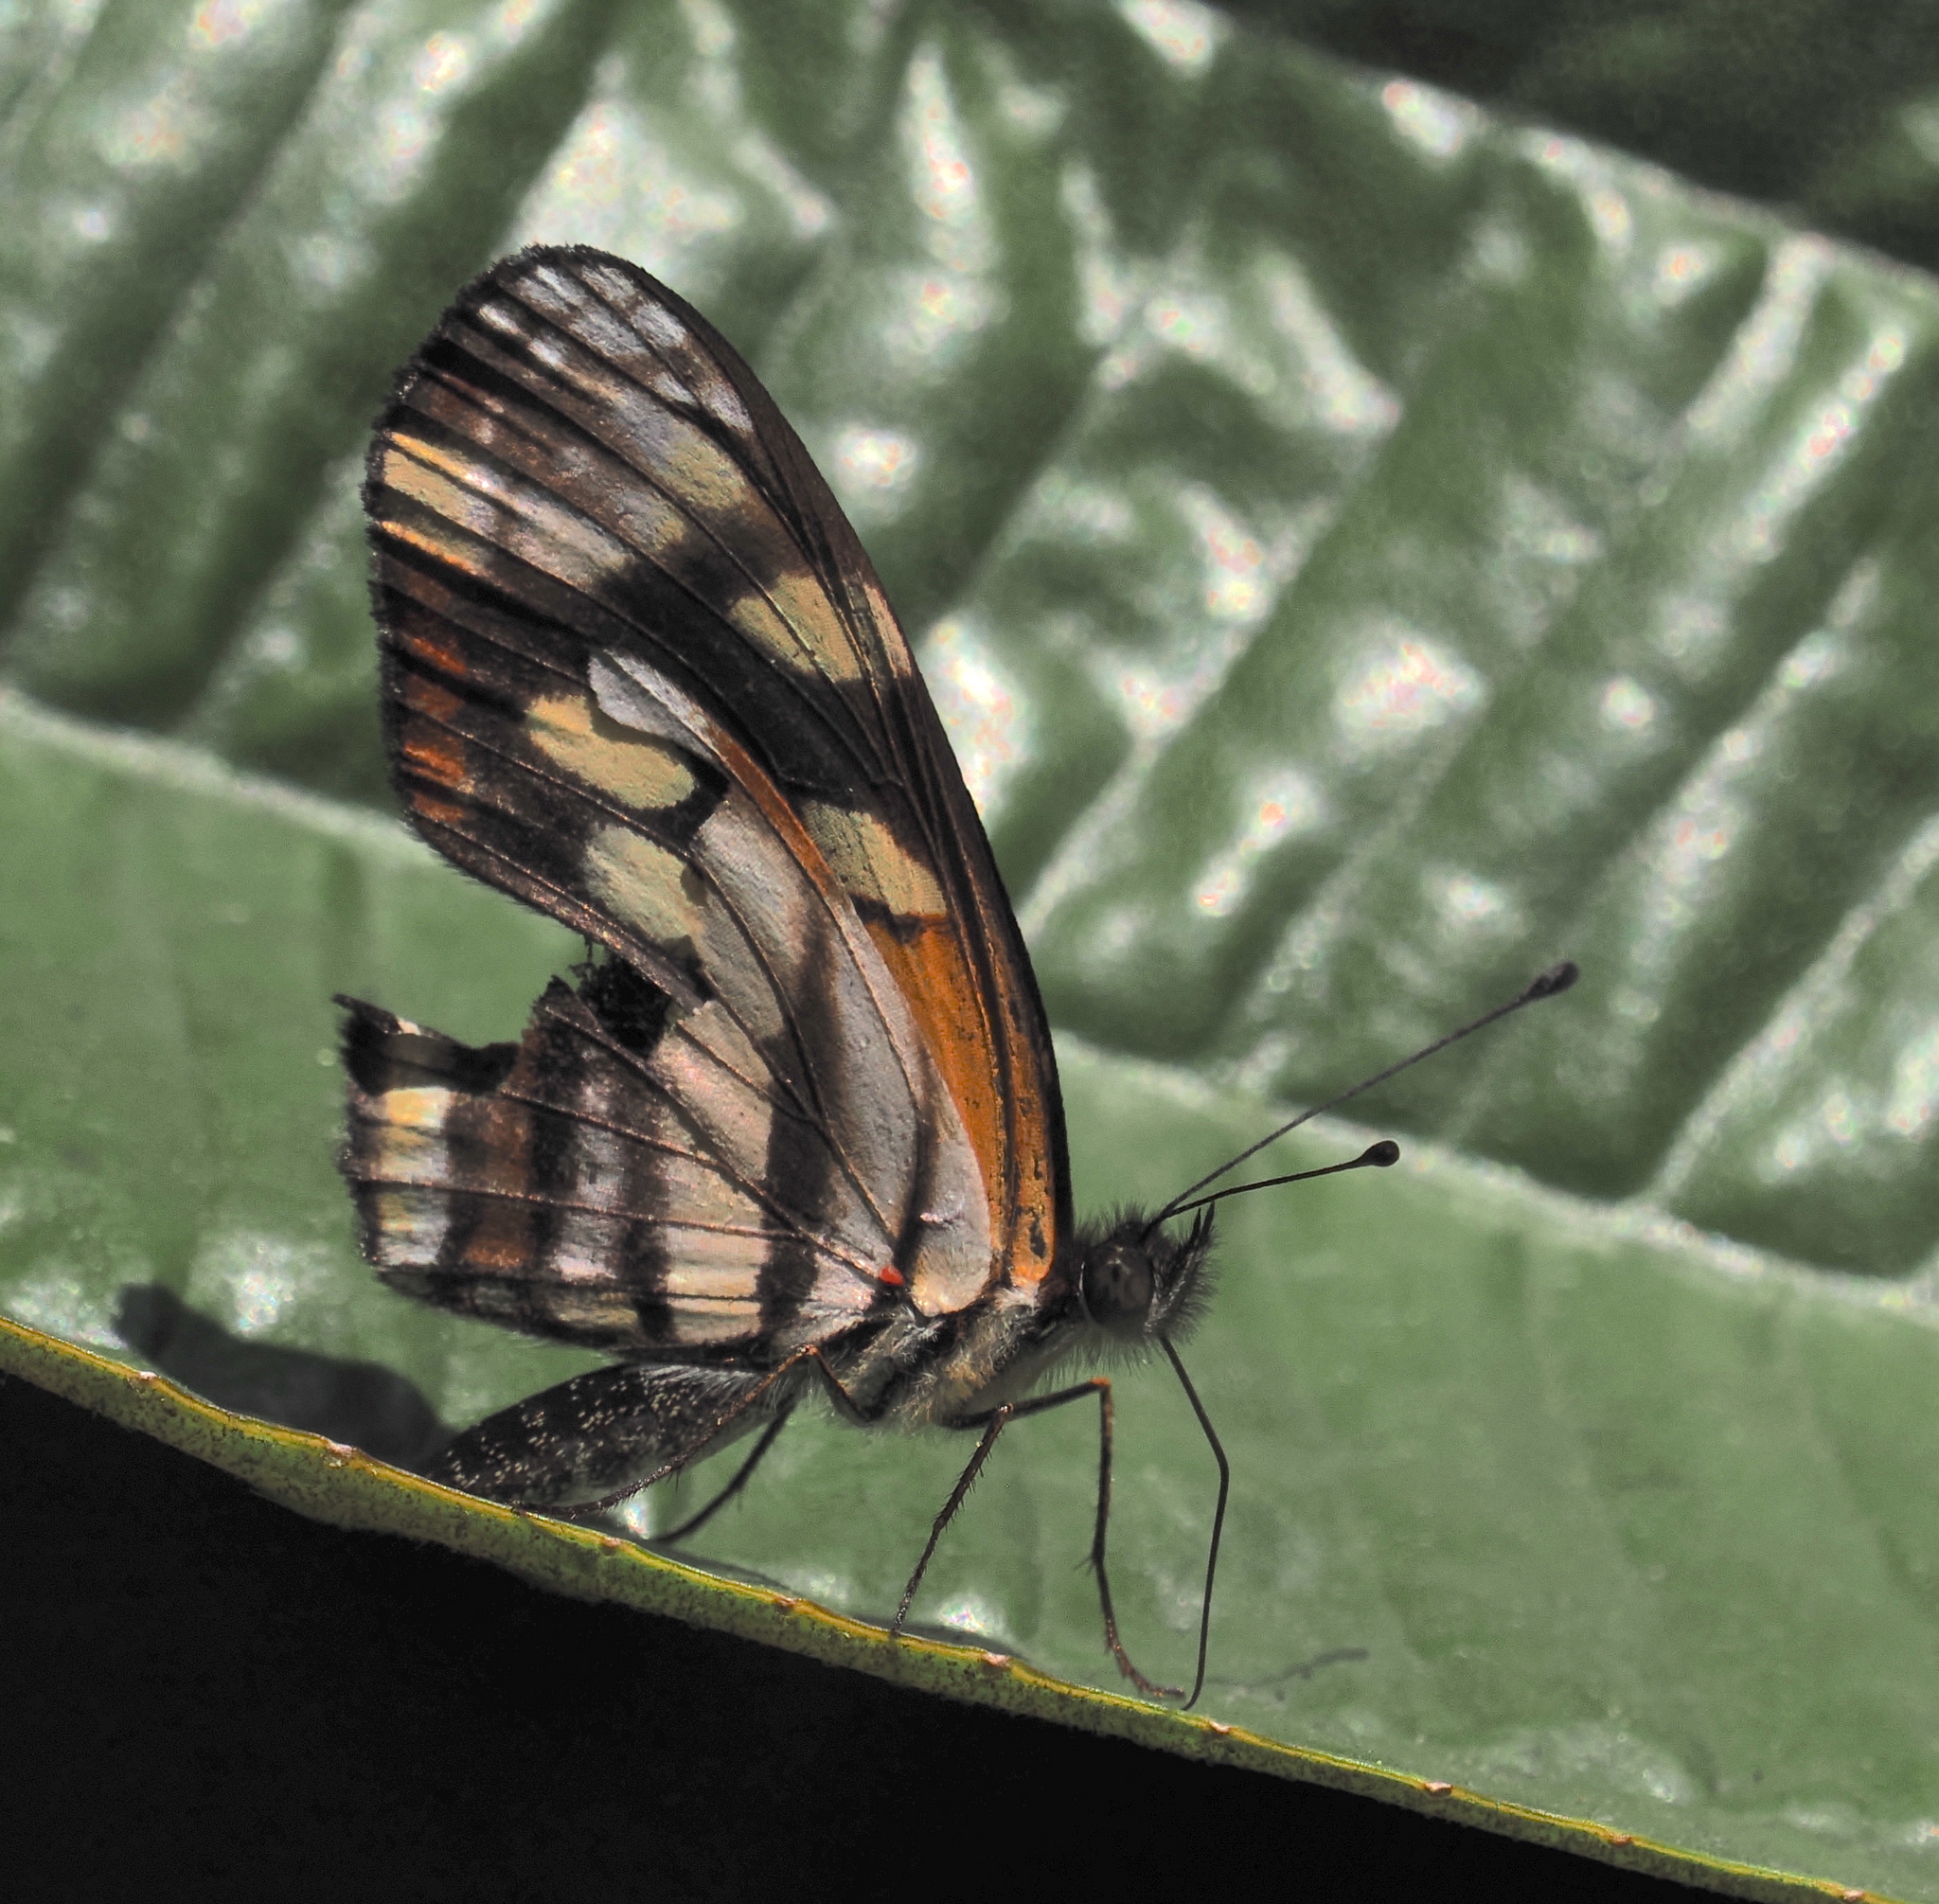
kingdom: Animalia
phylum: Arthropoda
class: Insecta
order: Lepidoptera
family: Nymphalidae
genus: Eresia
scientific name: Eresia carme
